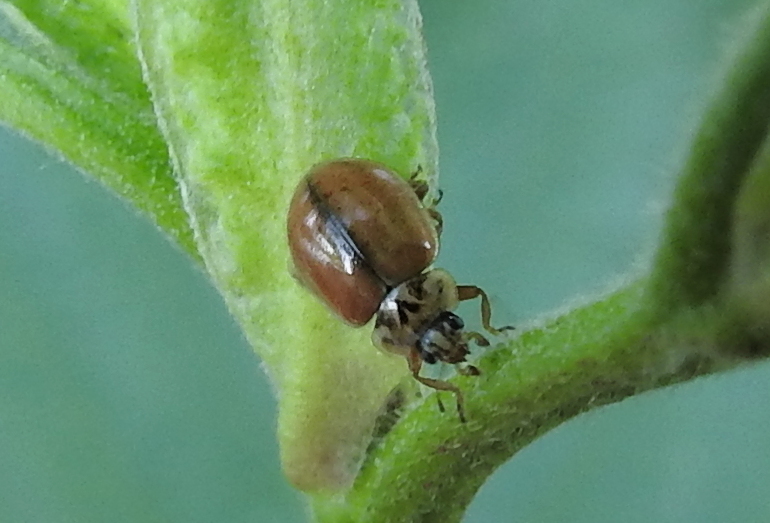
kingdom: Animalia
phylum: Arthropoda
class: Insecta
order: Coleoptera
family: Coccinellidae
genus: Aphidecta
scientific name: Aphidecta obliterata
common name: Larch ladybird
